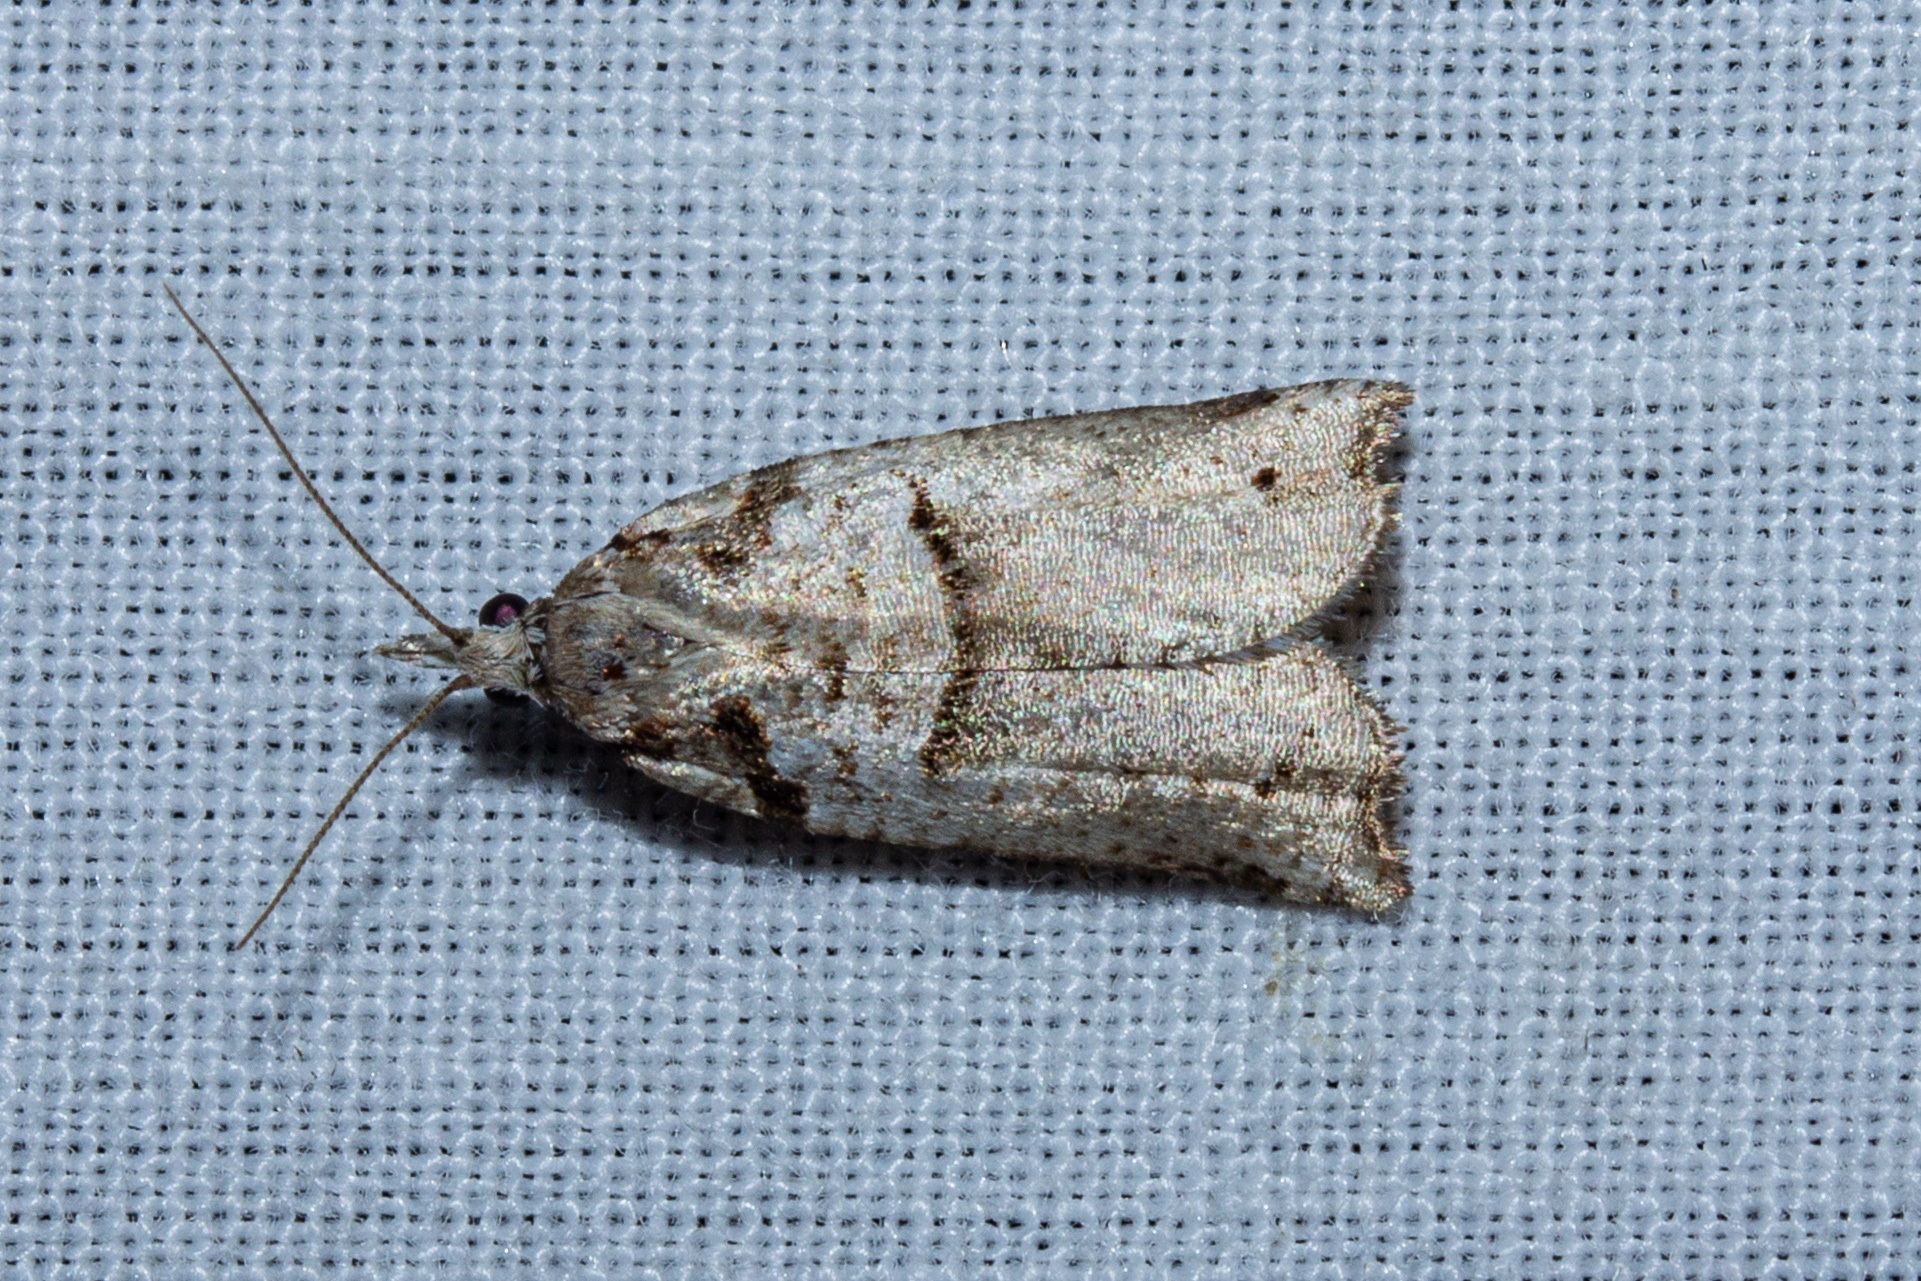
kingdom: Animalia
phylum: Arthropoda
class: Insecta
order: Lepidoptera
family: Tortricidae
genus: Harmologa
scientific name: Harmologa amplexana
